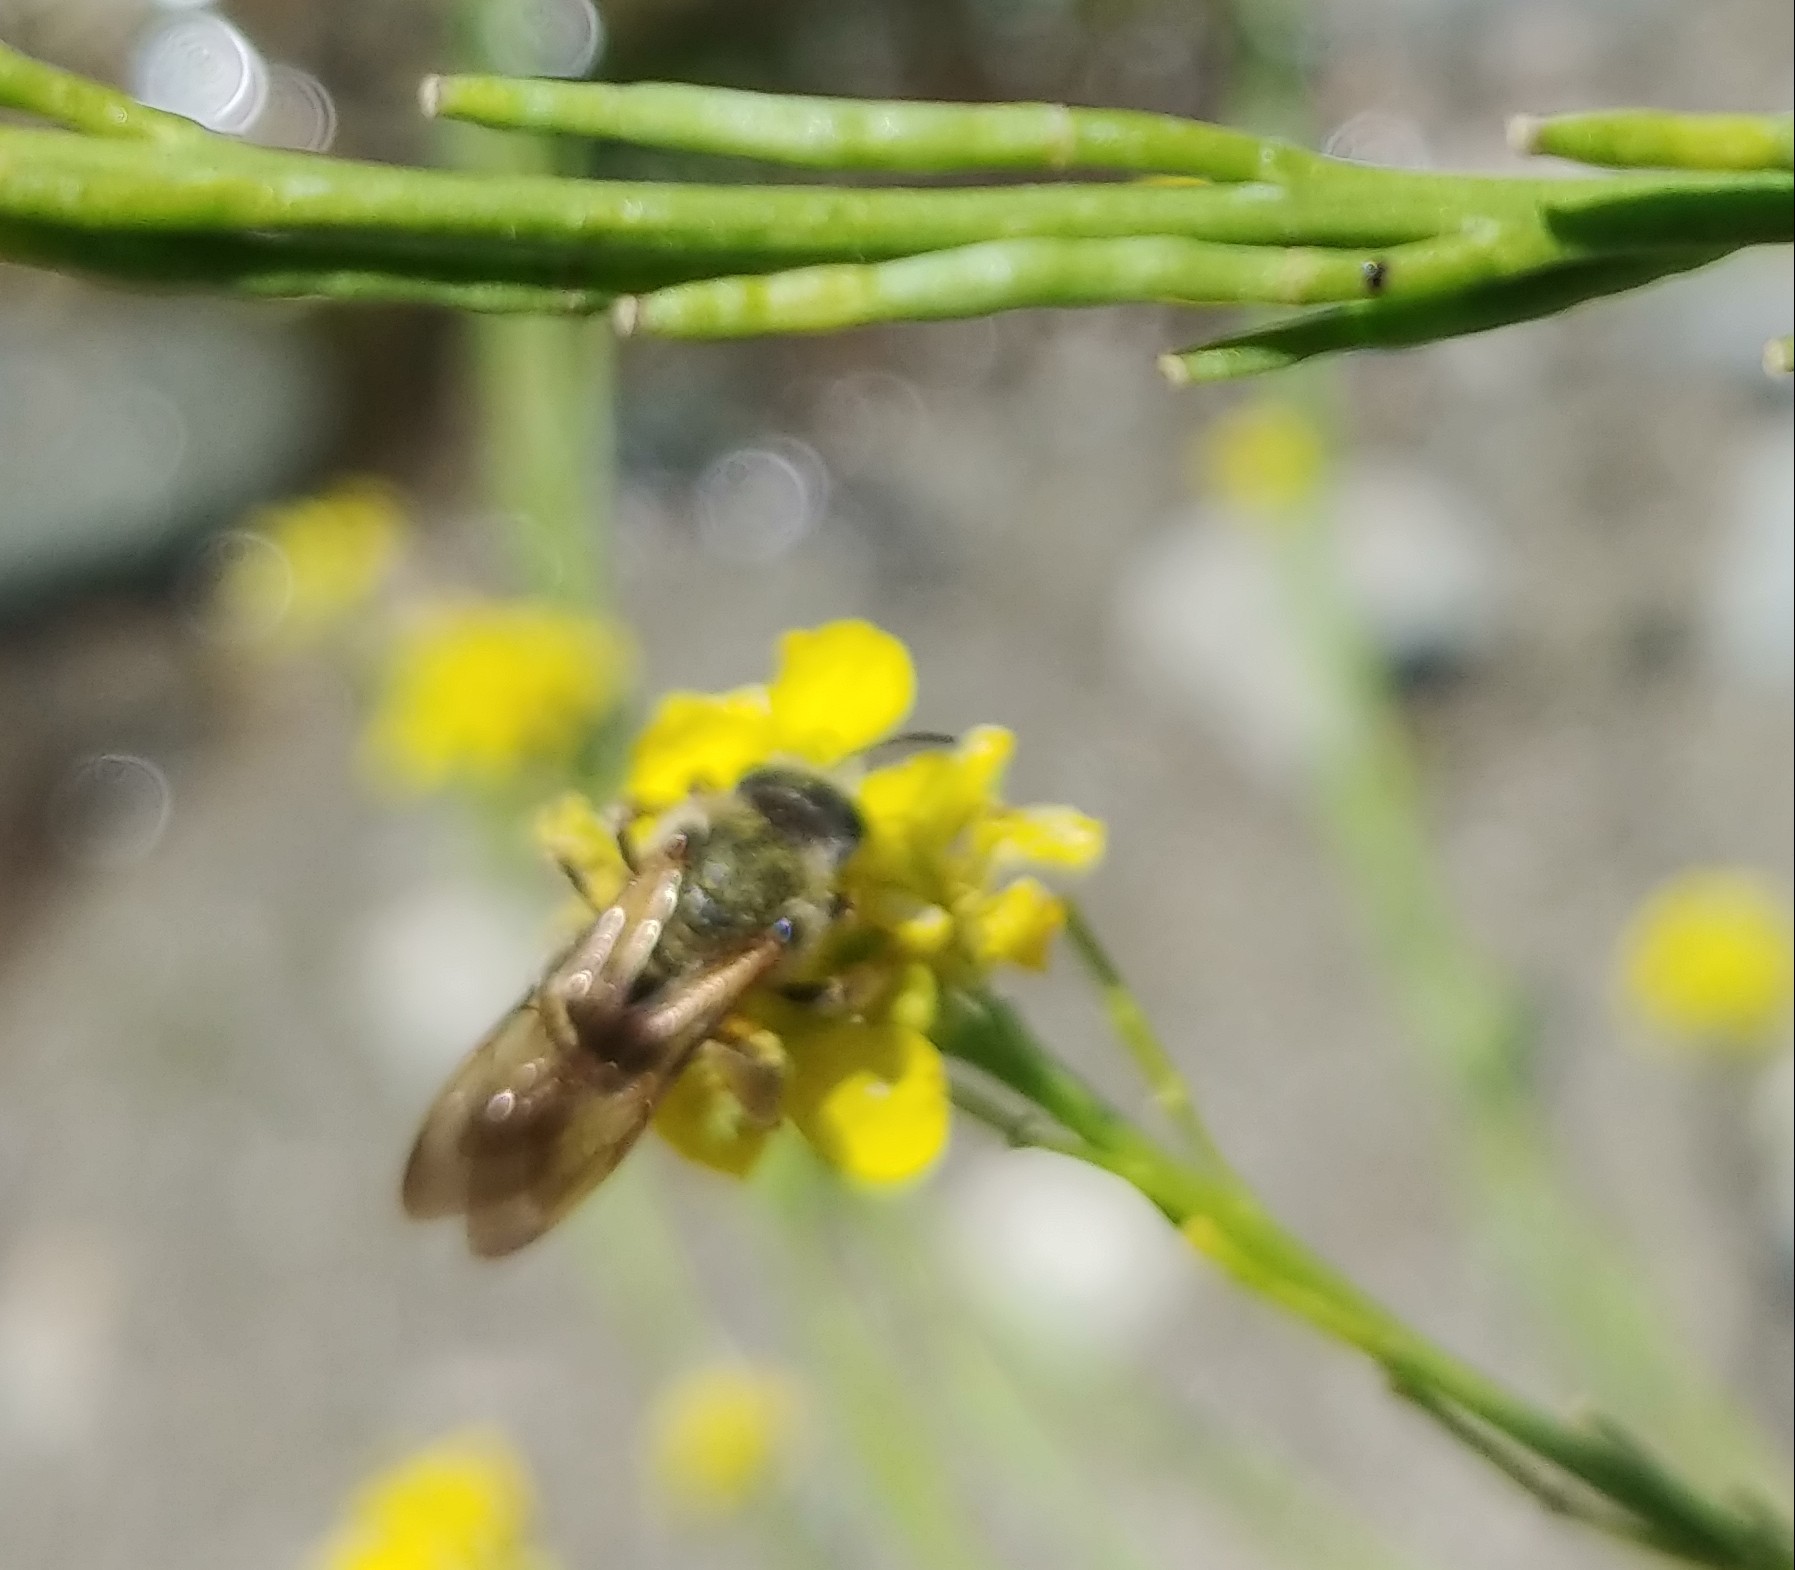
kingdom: Animalia
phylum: Arthropoda
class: Insecta
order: Hymenoptera
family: Halictidae
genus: Halictus
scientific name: Halictus farinosus
